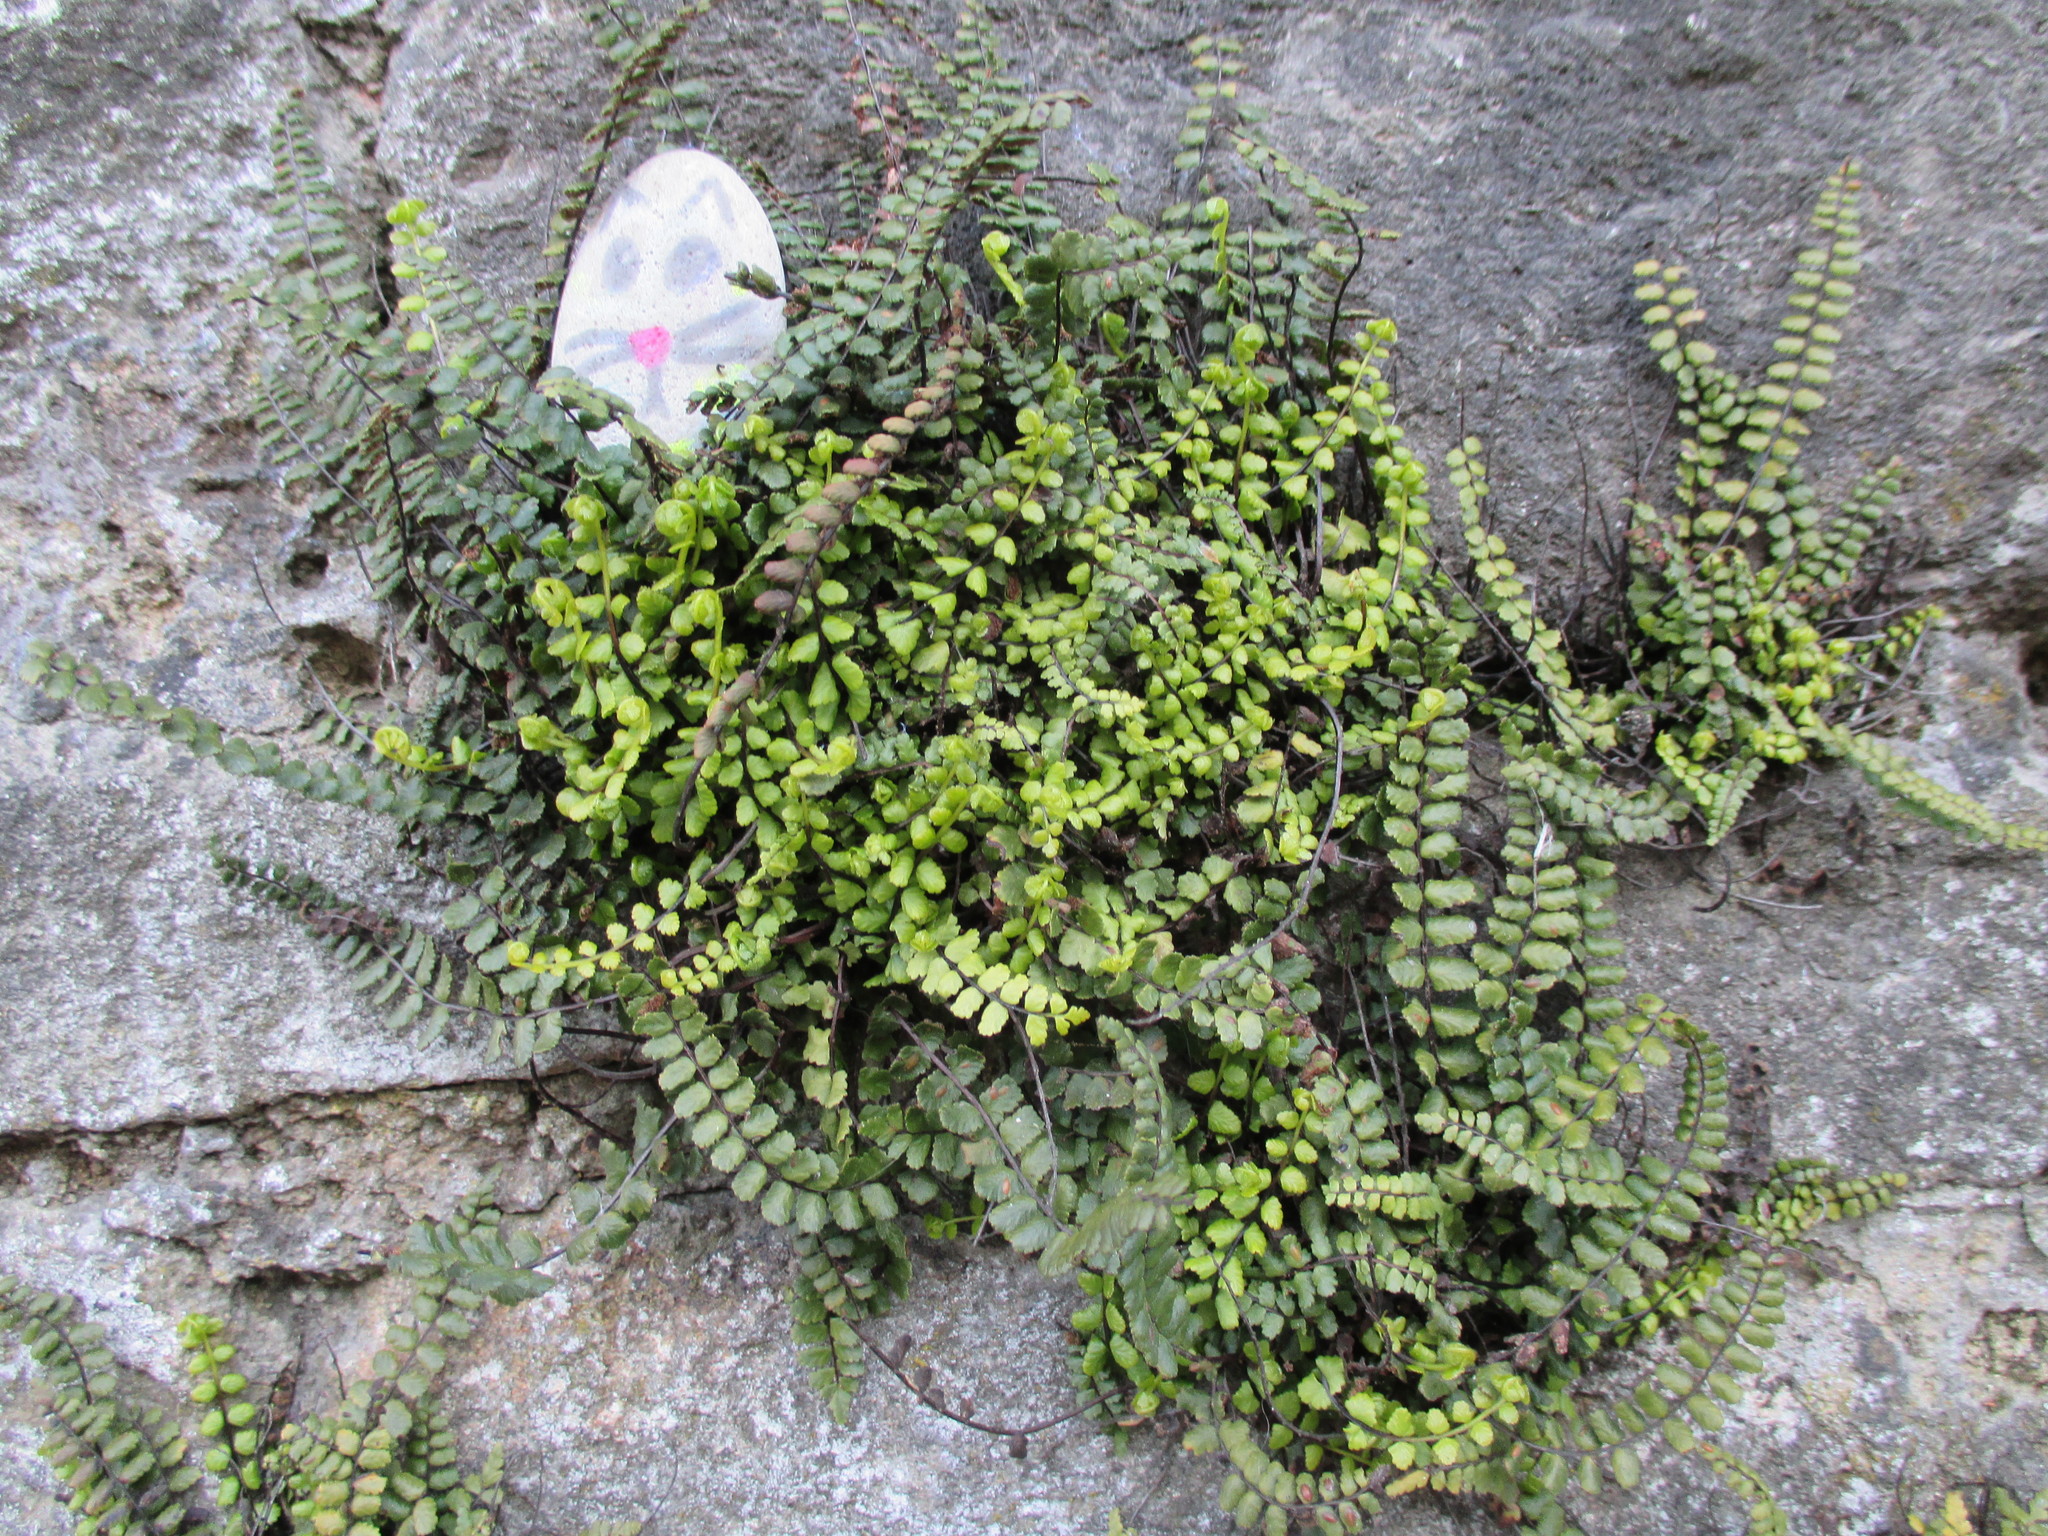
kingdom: Plantae
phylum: Tracheophyta
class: Polypodiopsida
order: Polypodiales
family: Aspleniaceae
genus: Asplenium
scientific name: Asplenium trichomanes
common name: Maidenhair spleenwort
